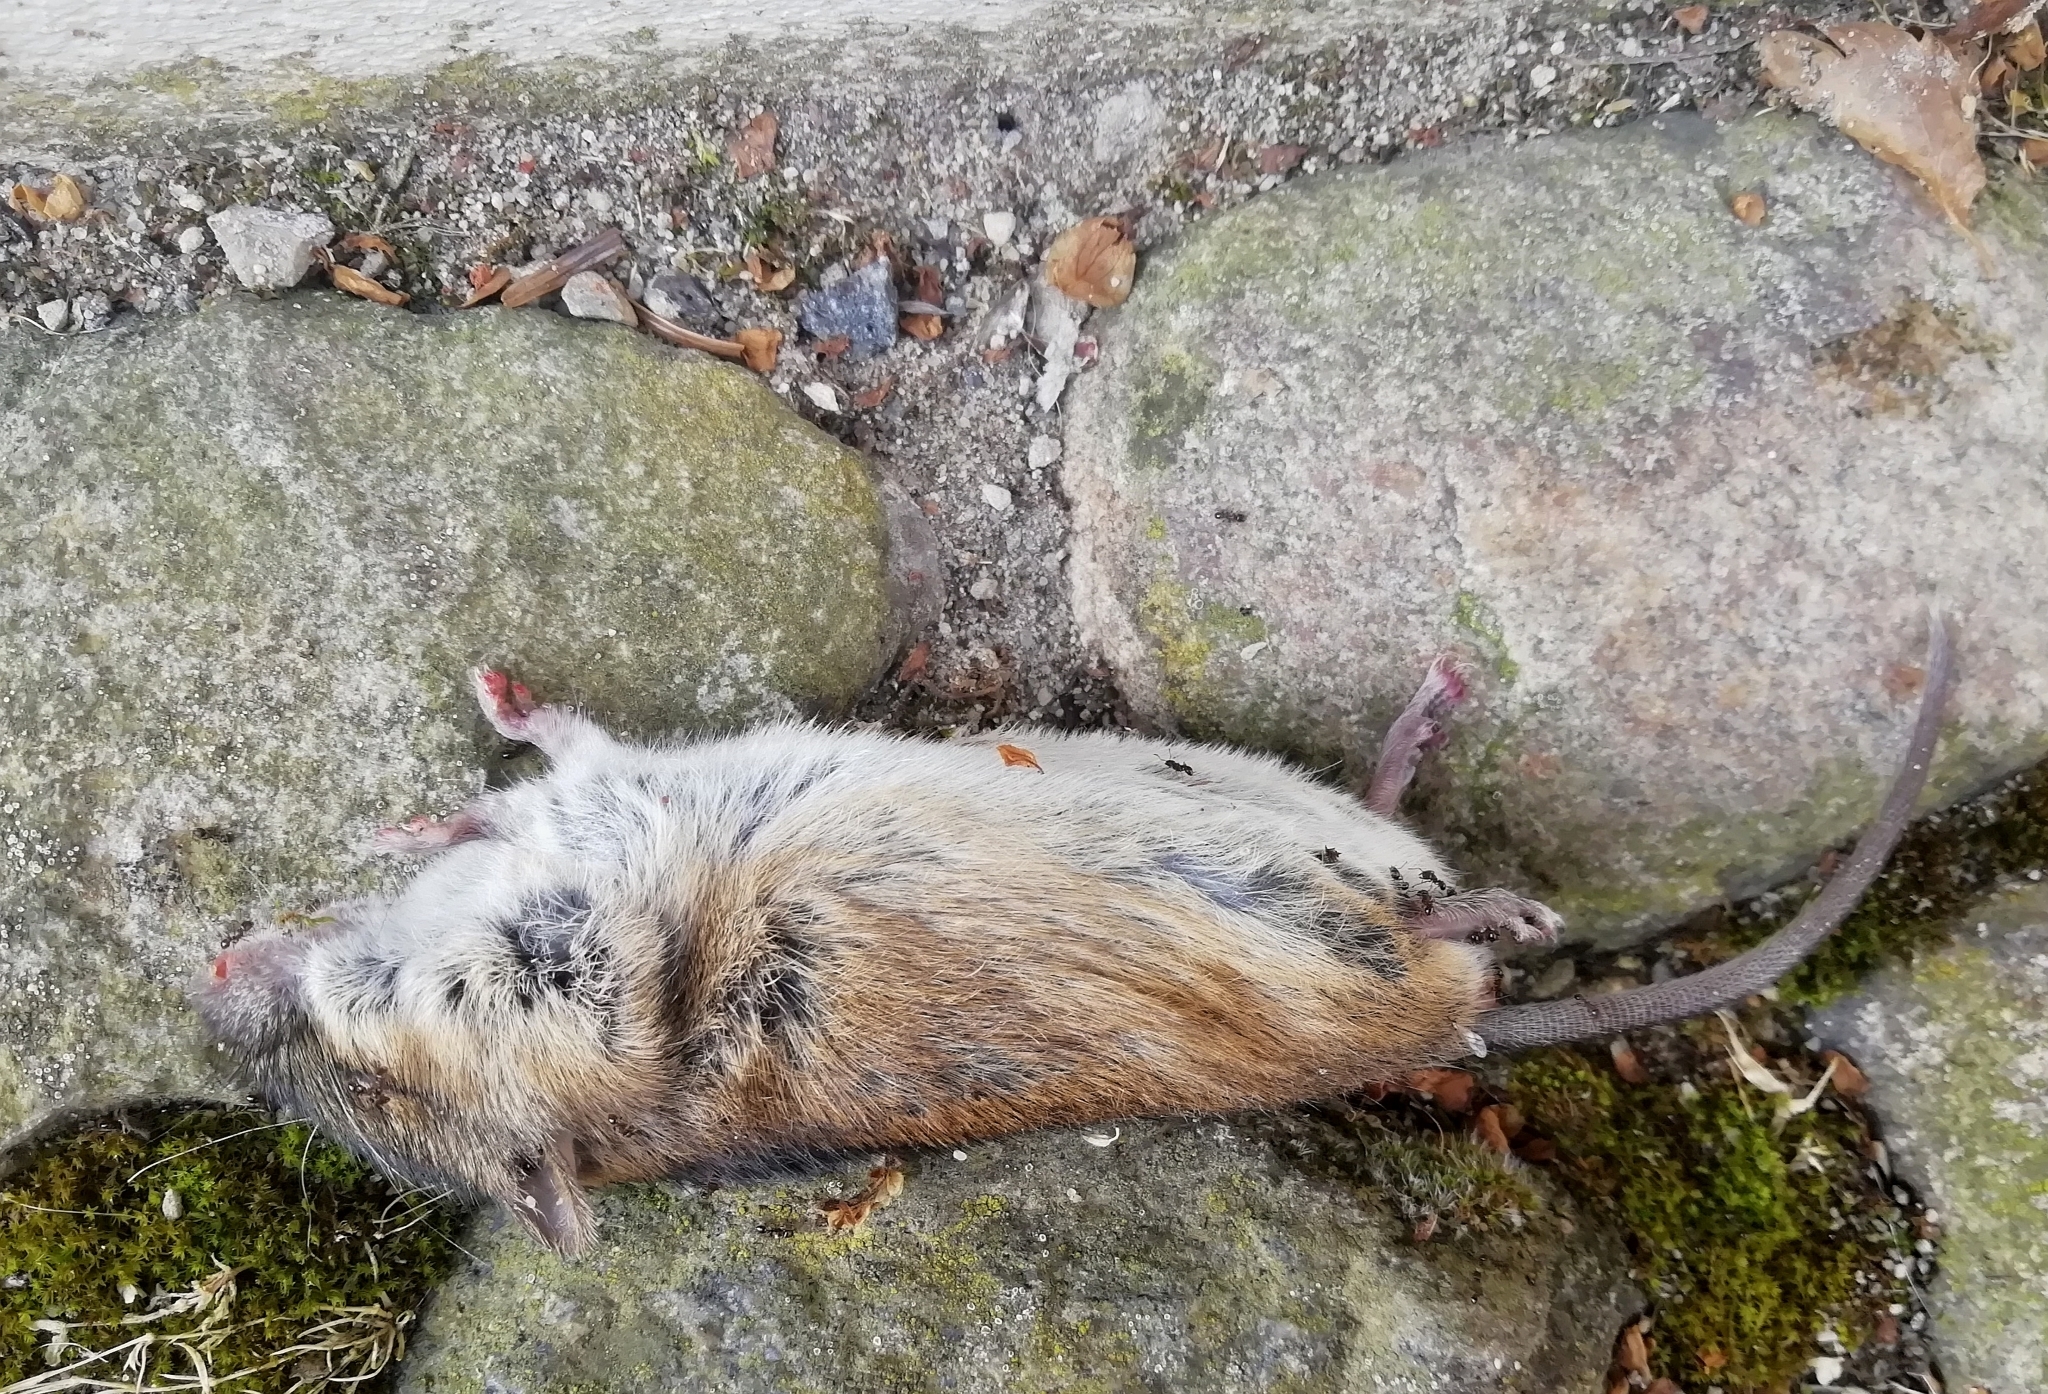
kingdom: Animalia
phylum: Chordata
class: Mammalia
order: Rodentia
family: Muridae
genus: Apodemus
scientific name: Apodemus agrarius
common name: Striped field mouse
